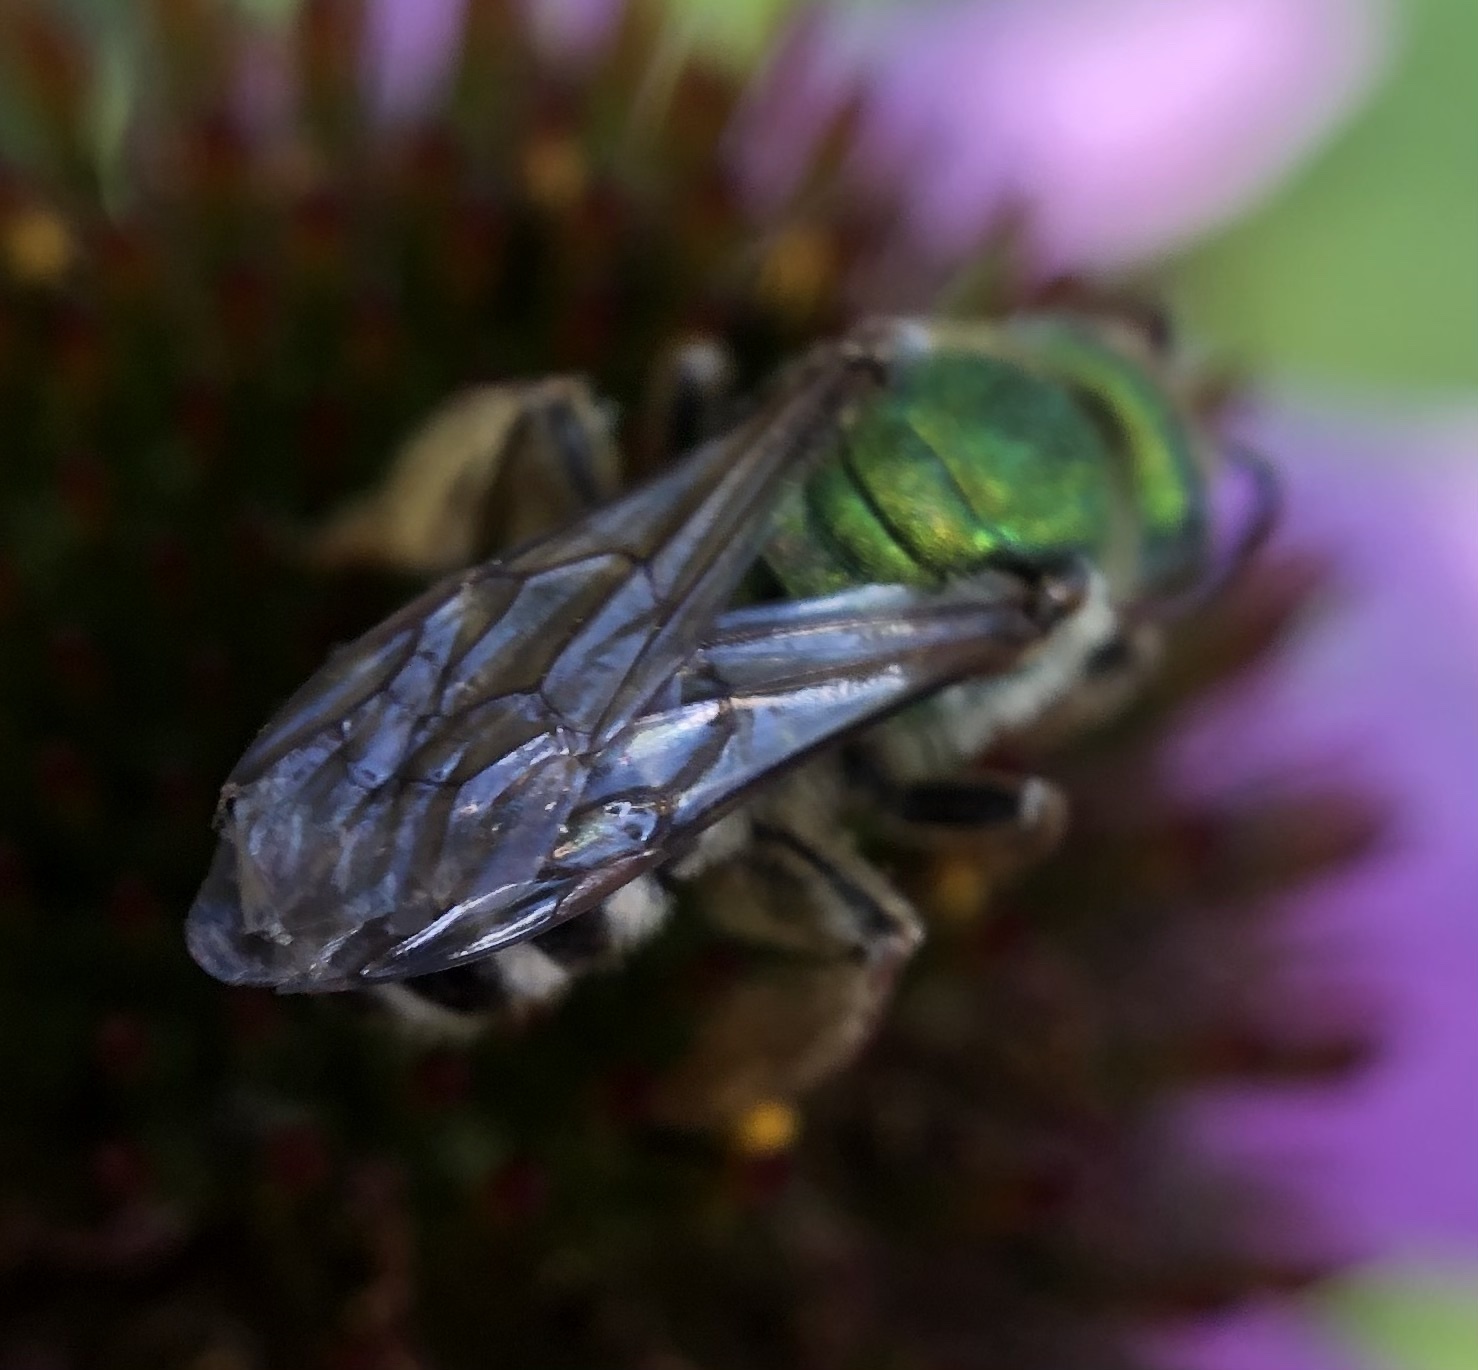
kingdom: Animalia
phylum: Arthropoda
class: Insecta
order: Hymenoptera
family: Halictidae
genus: Agapostemon
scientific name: Agapostemon virescens
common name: Bicolored striped sweat bee
